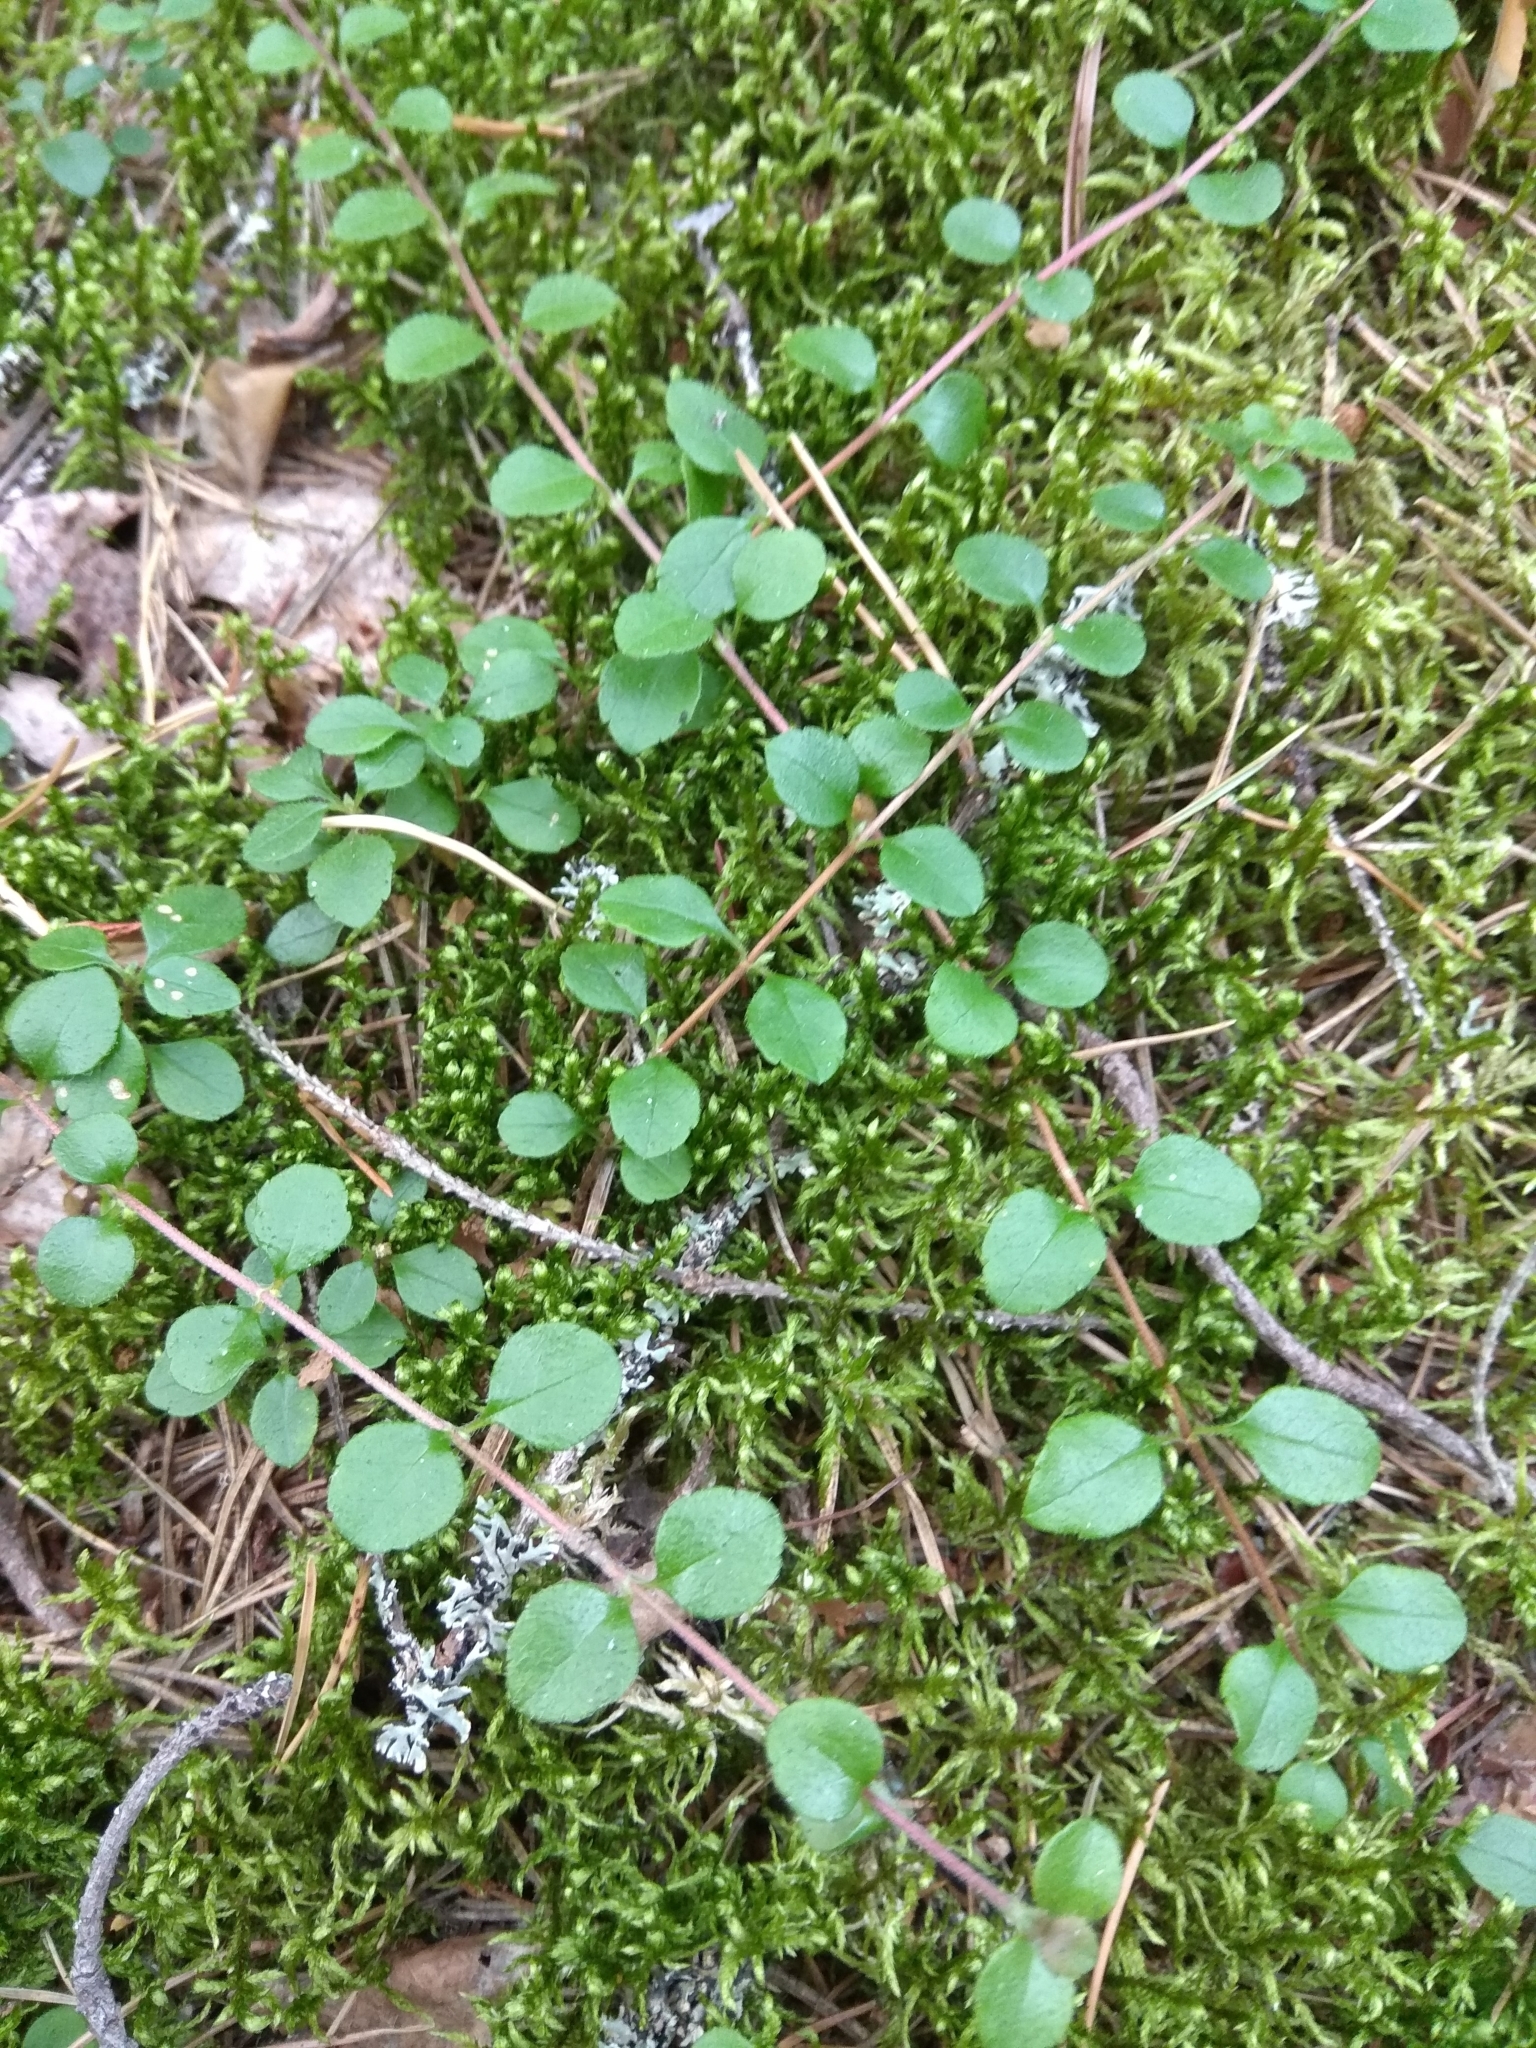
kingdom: Plantae
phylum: Tracheophyta
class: Magnoliopsida
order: Dipsacales
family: Caprifoliaceae
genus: Linnaea
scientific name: Linnaea borealis
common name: Twinflower
